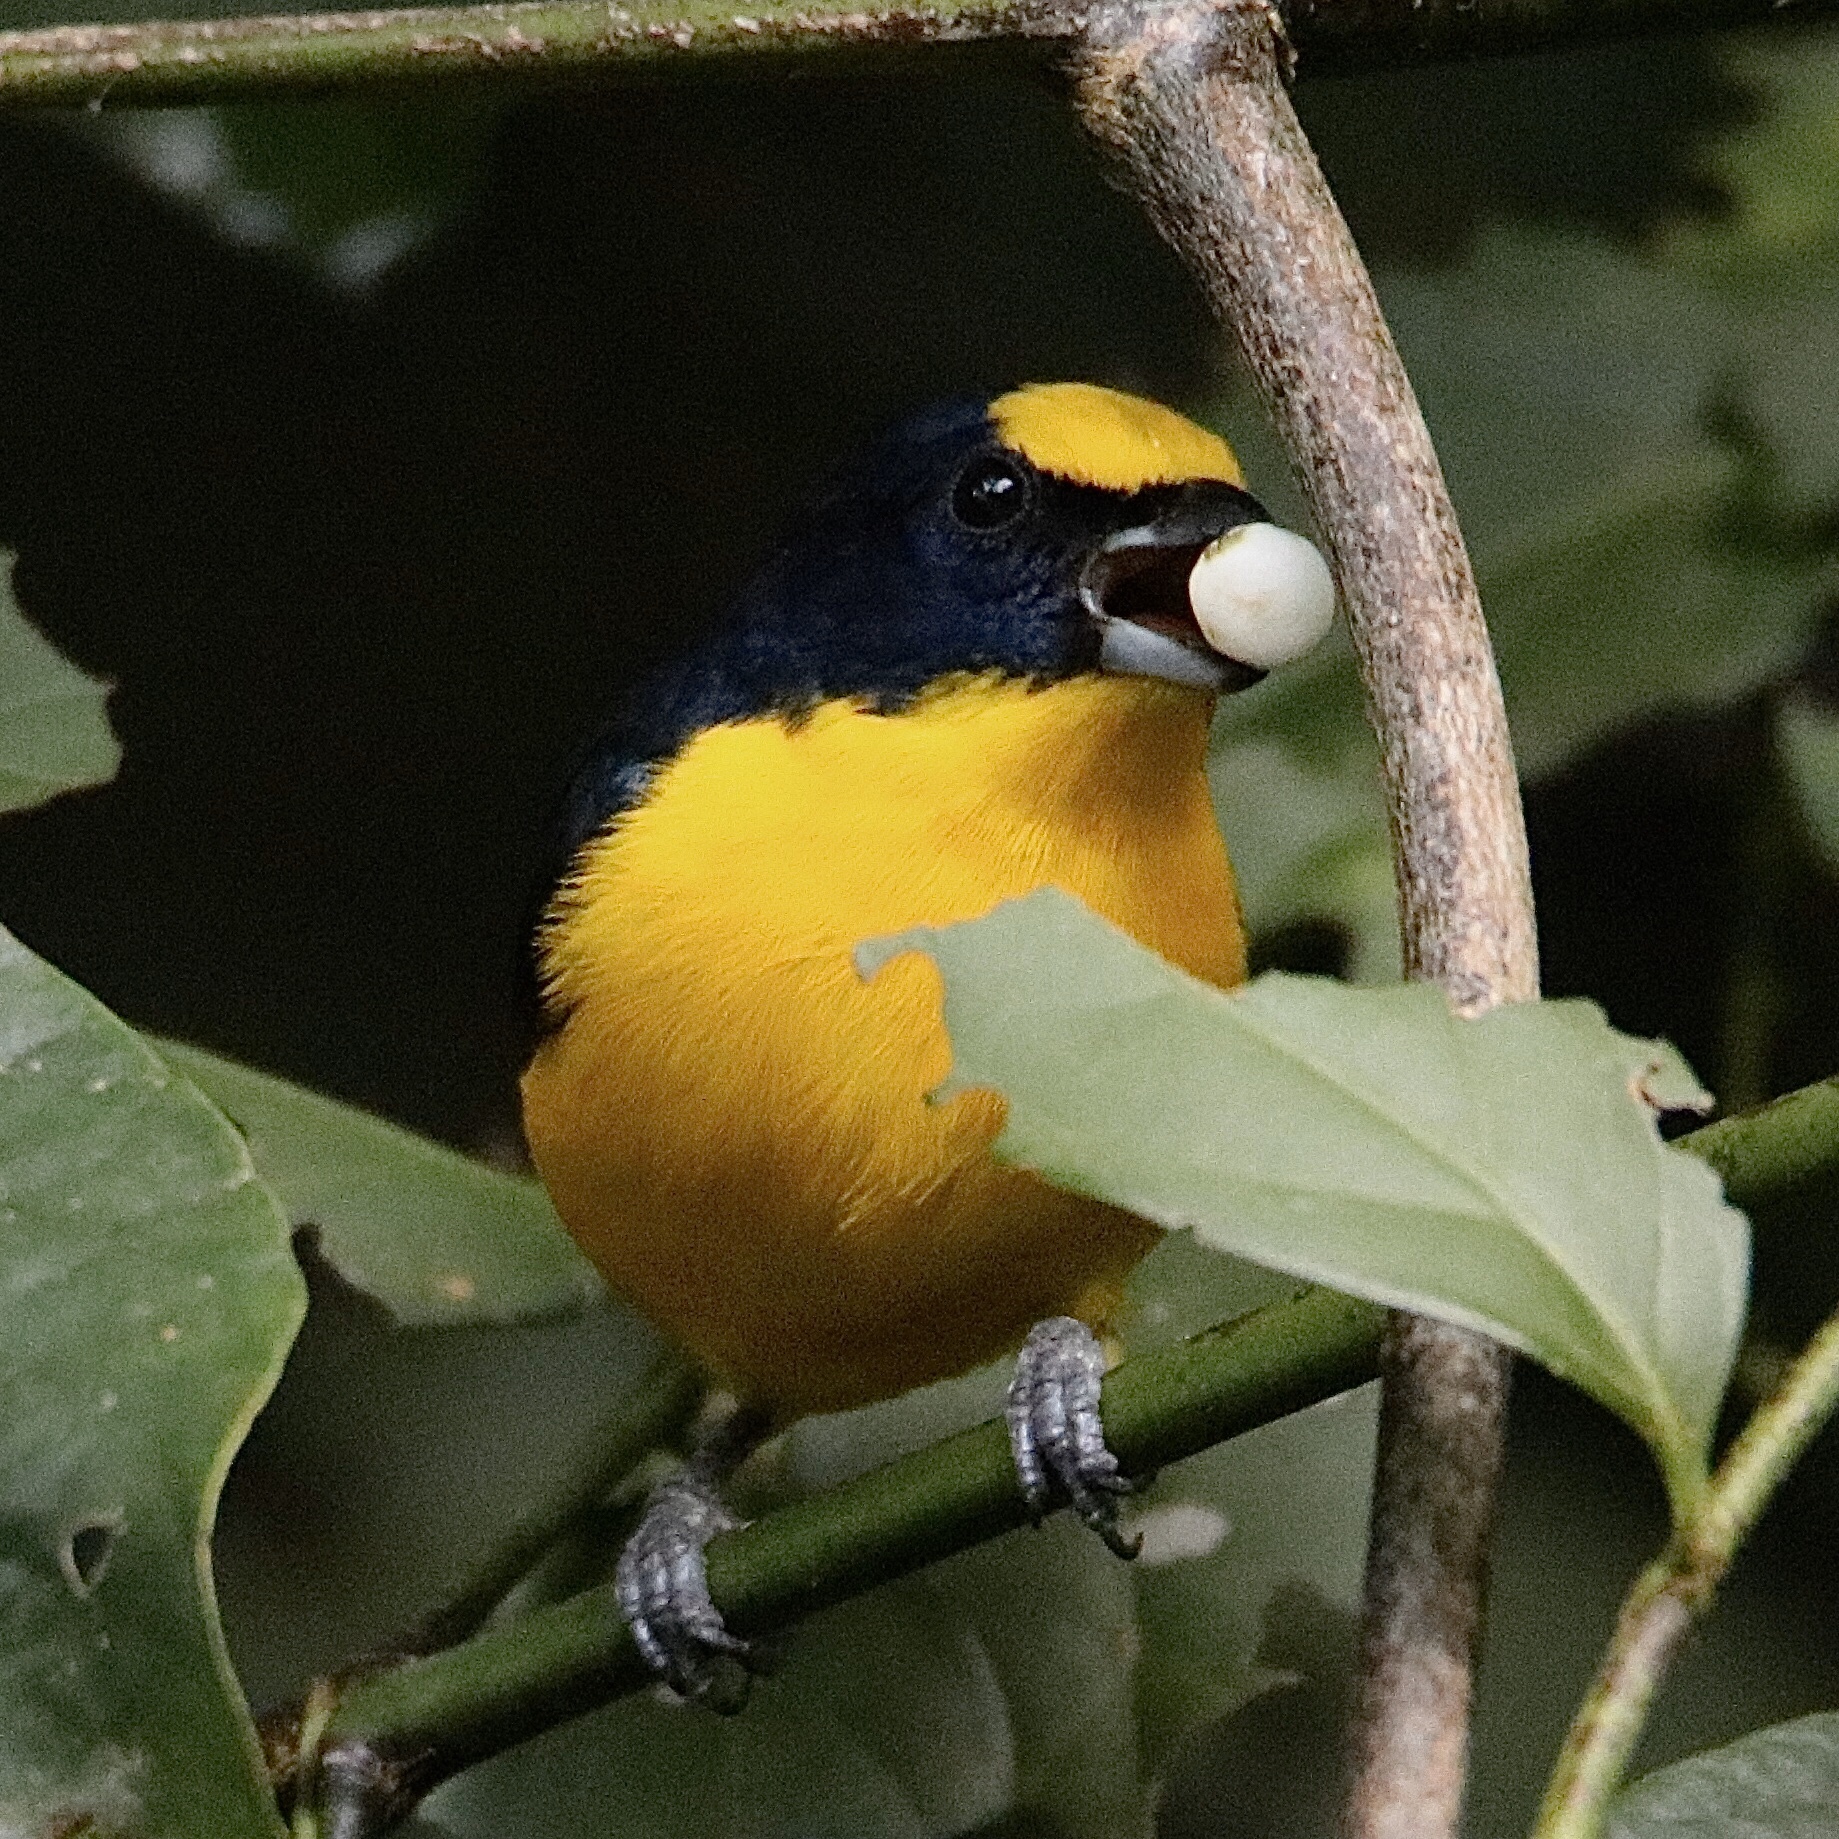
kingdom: Animalia
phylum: Chordata
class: Aves
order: Passeriformes
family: Fringillidae
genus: Euphonia
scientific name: Euphonia laniirostris
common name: Thick-billed euphonia
